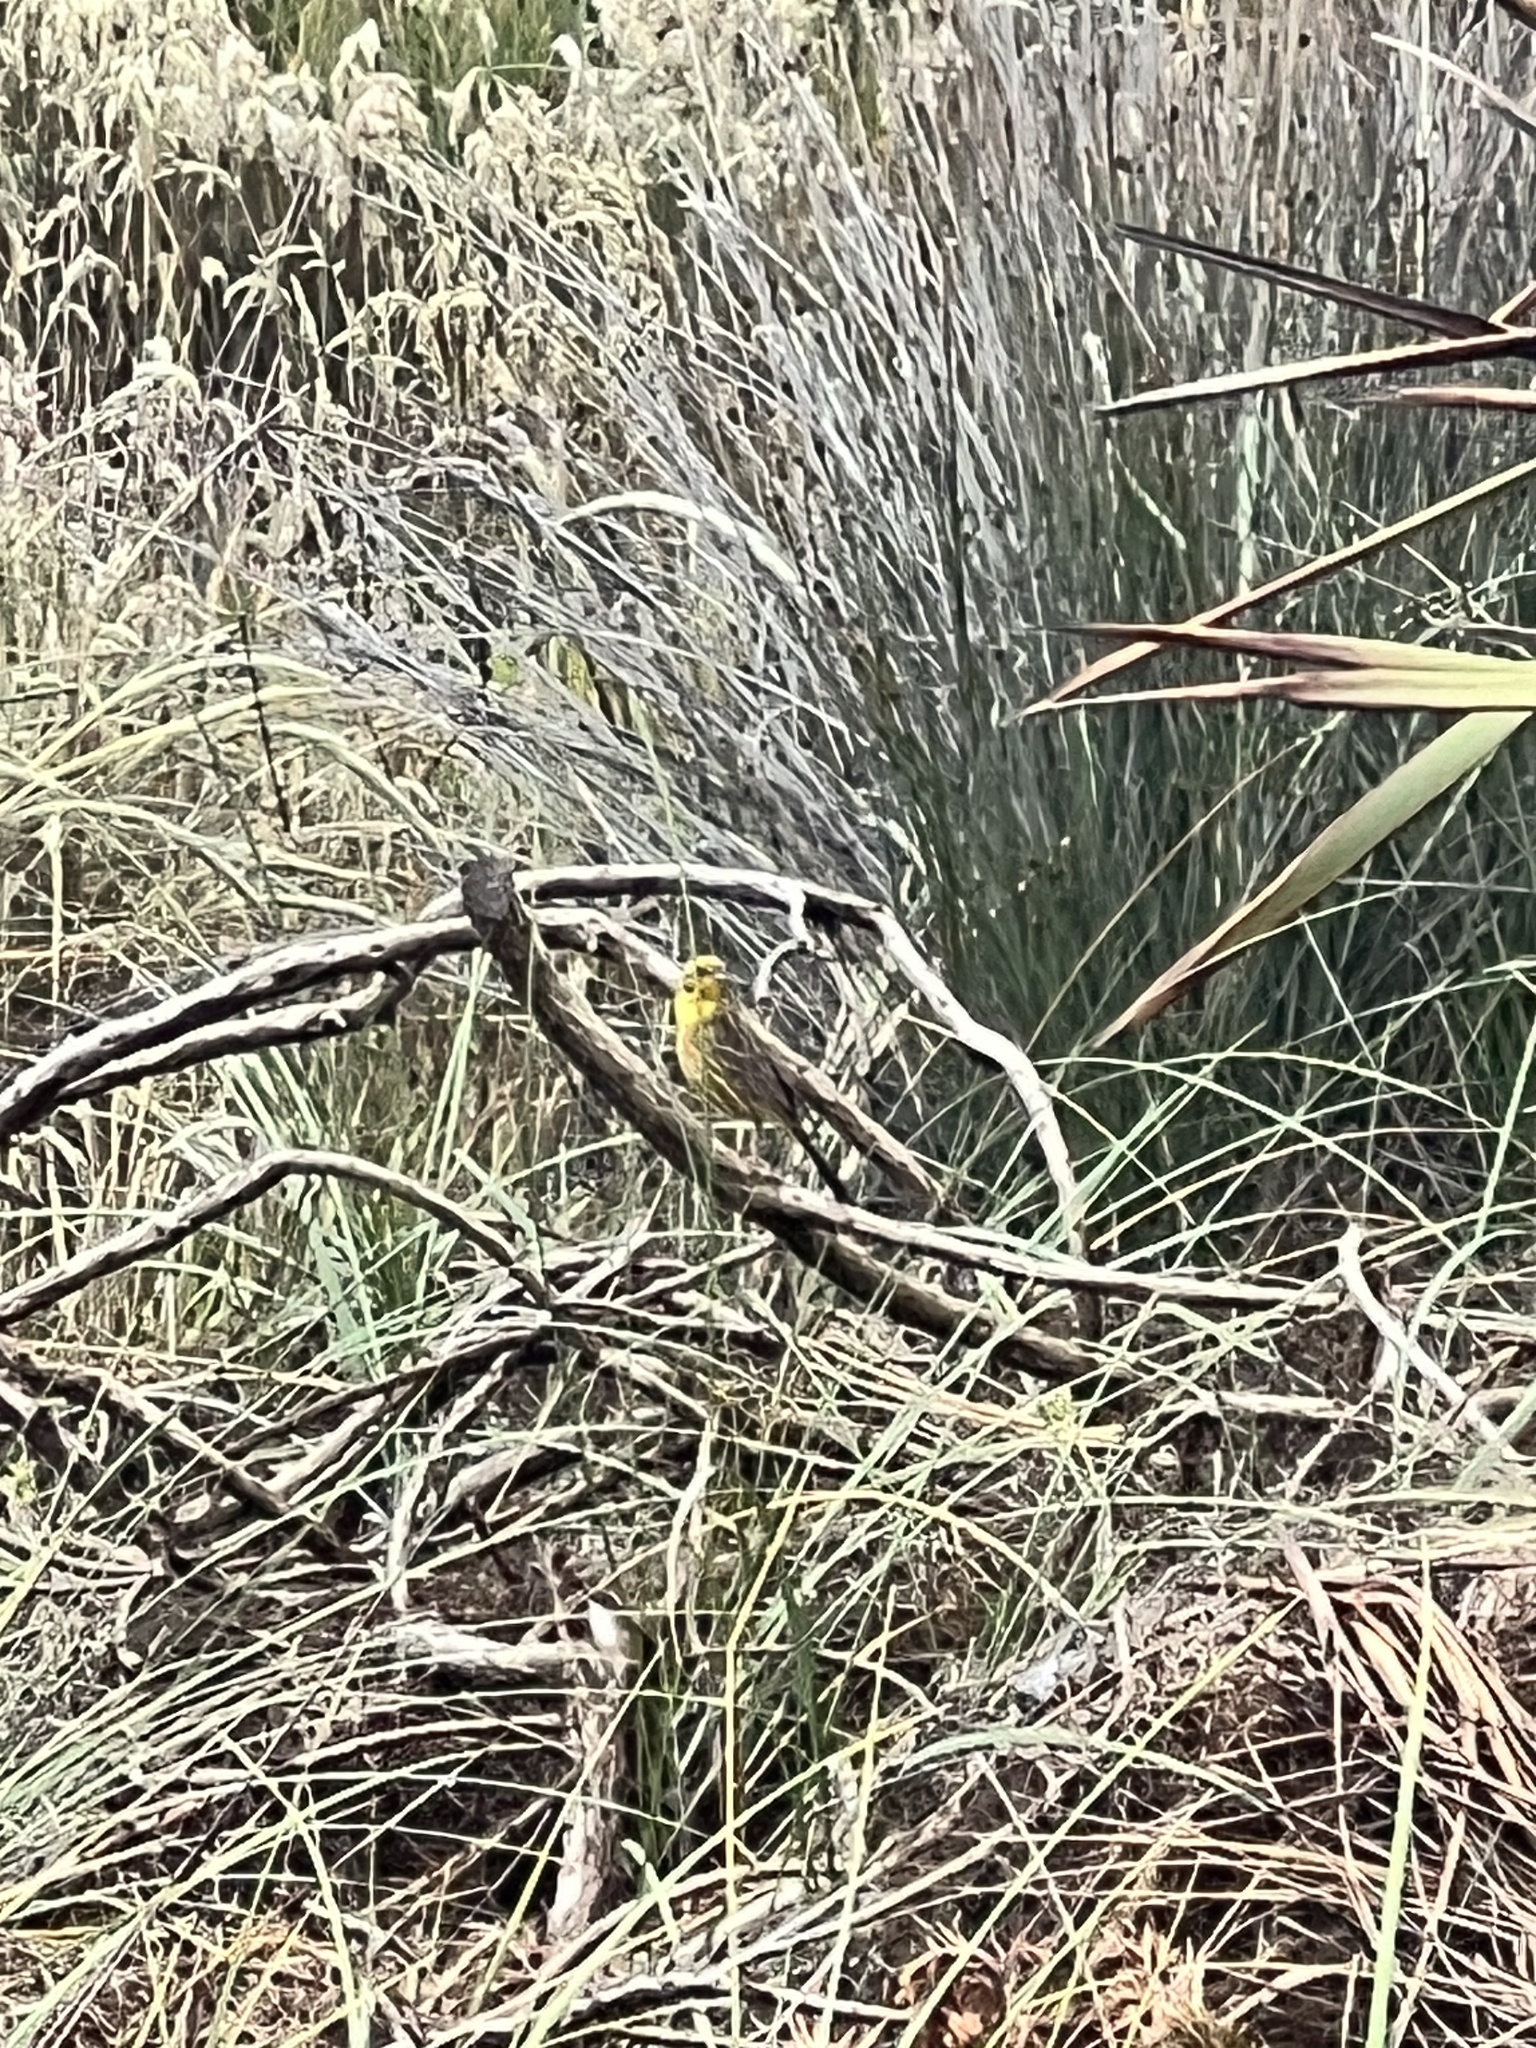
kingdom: Animalia
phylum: Chordata
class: Aves
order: Passeriformes
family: Emberizidae
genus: Emberiza
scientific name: Emberiza citrinella
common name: Yellowhammer
